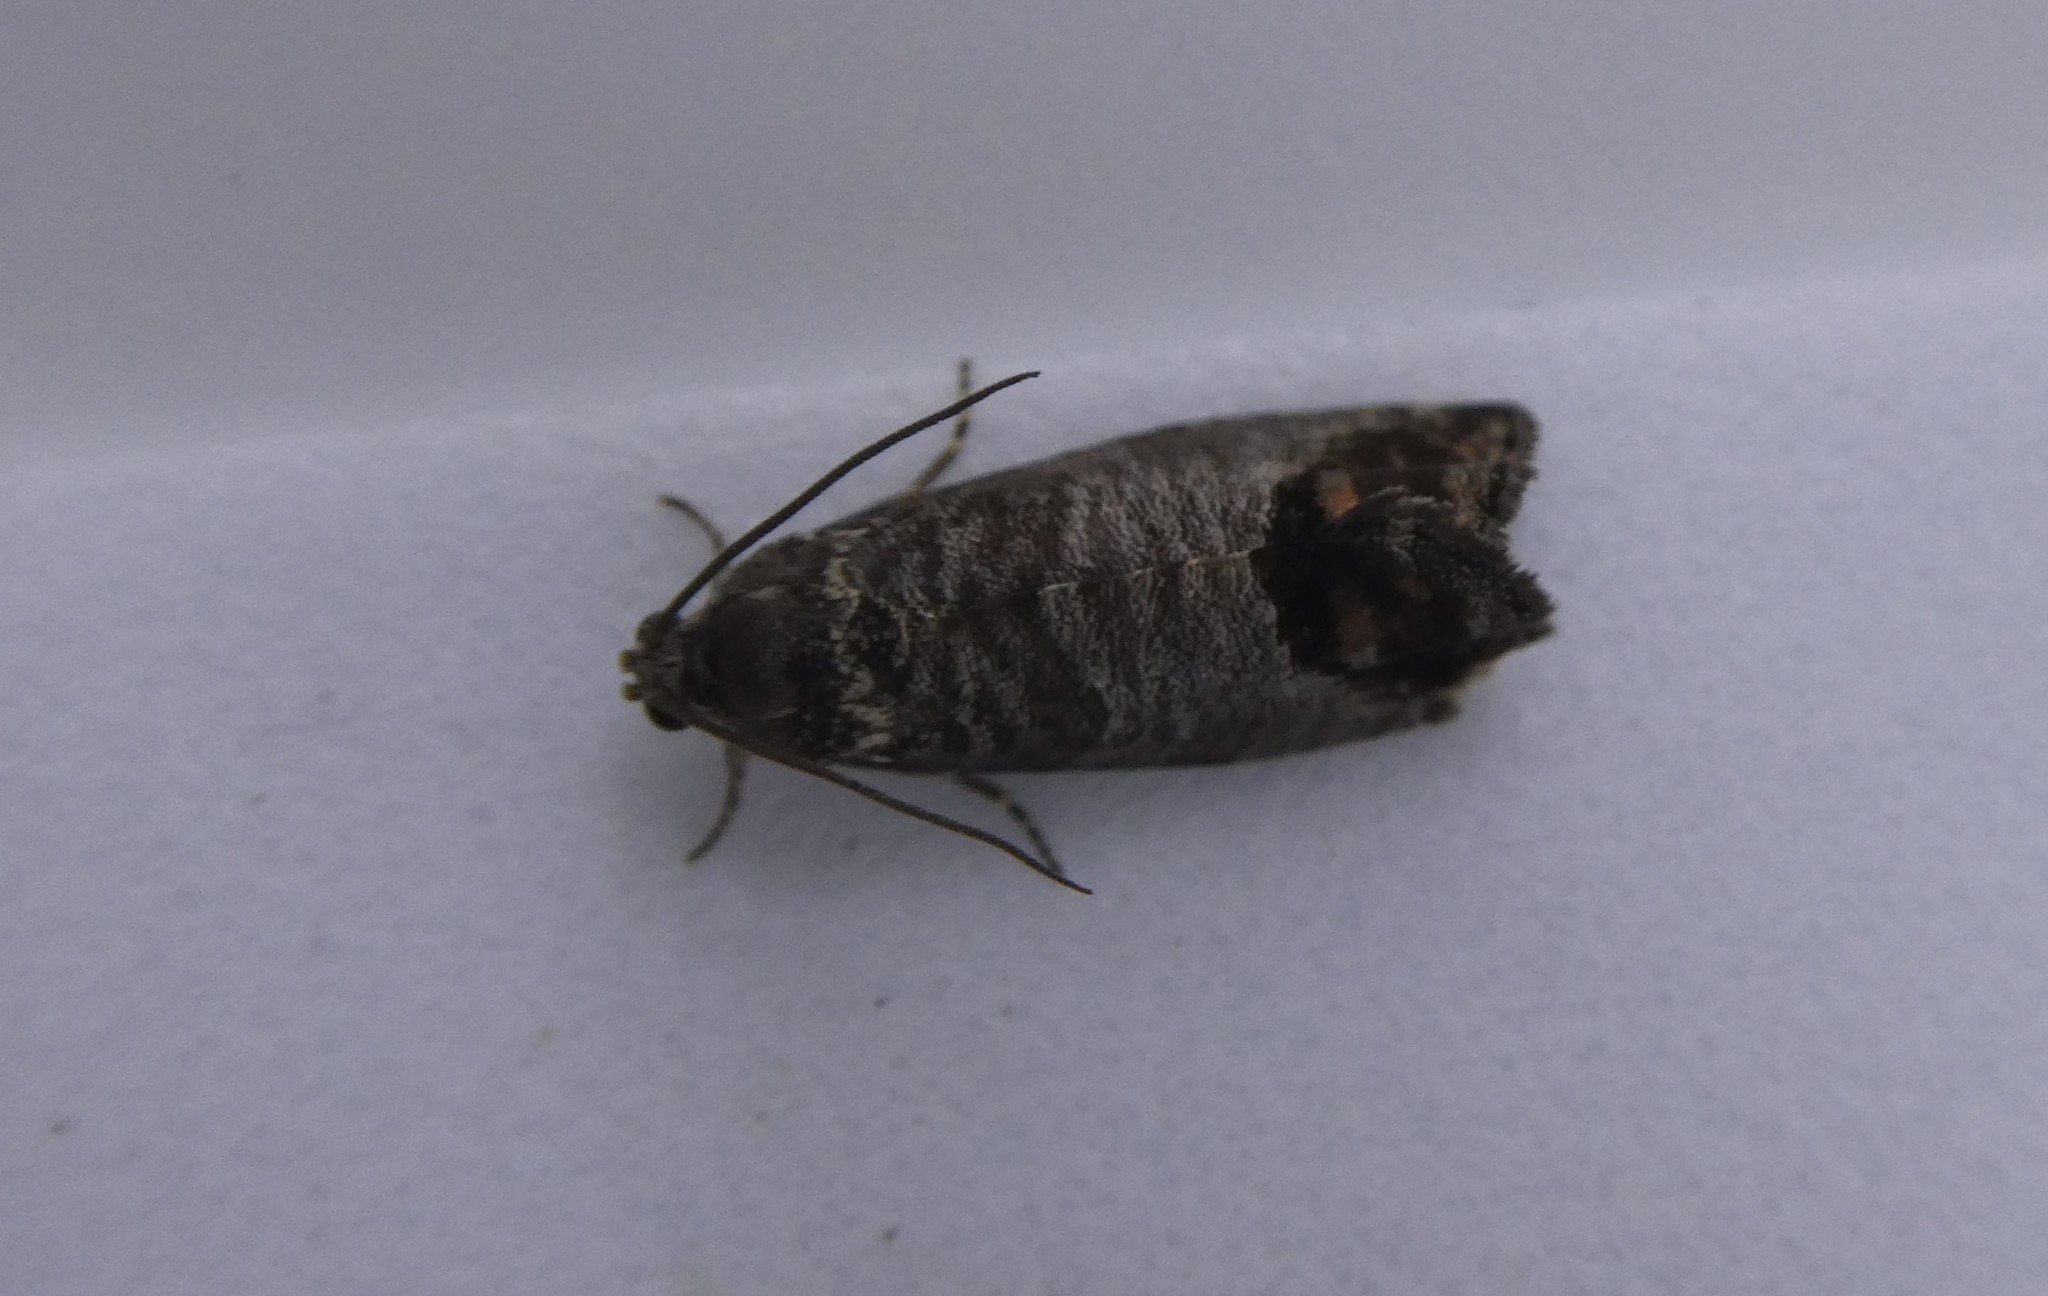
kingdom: Animalia
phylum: Arthropoda
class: Insecta
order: Lepidoptera
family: Tortricidae
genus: Cydia
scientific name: Cydia pomonella
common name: Codling moth
